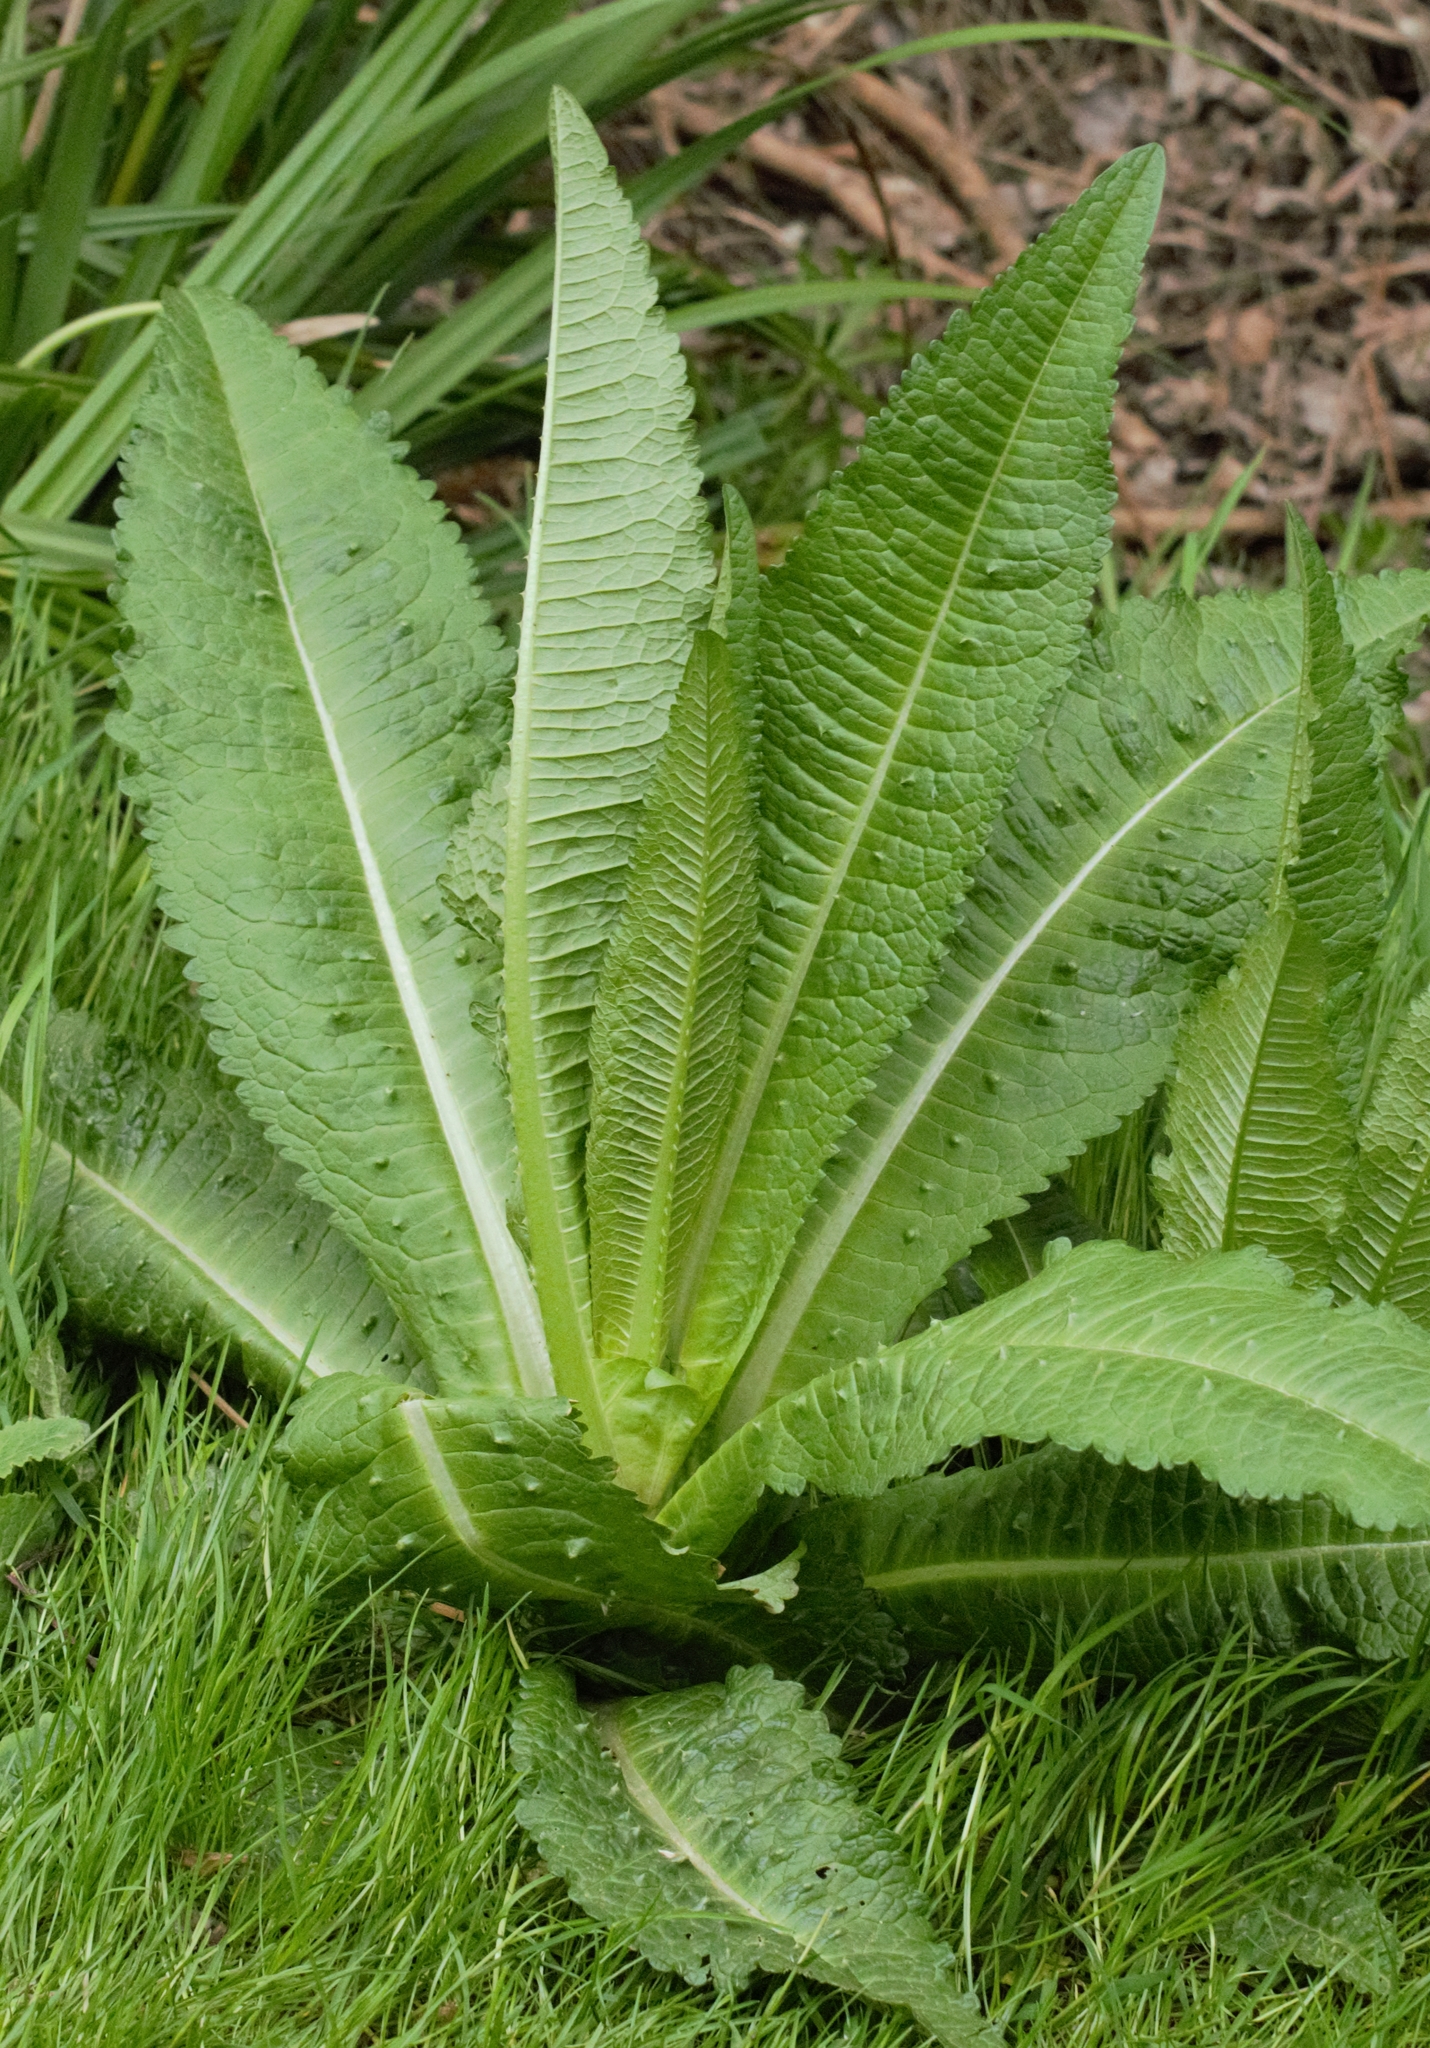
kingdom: Plantae
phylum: Tracheophyta
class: Magnoliopsida
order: Dipsacales
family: Caprifoliaceae
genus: Dipsacus
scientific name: Dipsacus fullonum
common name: Teasel
